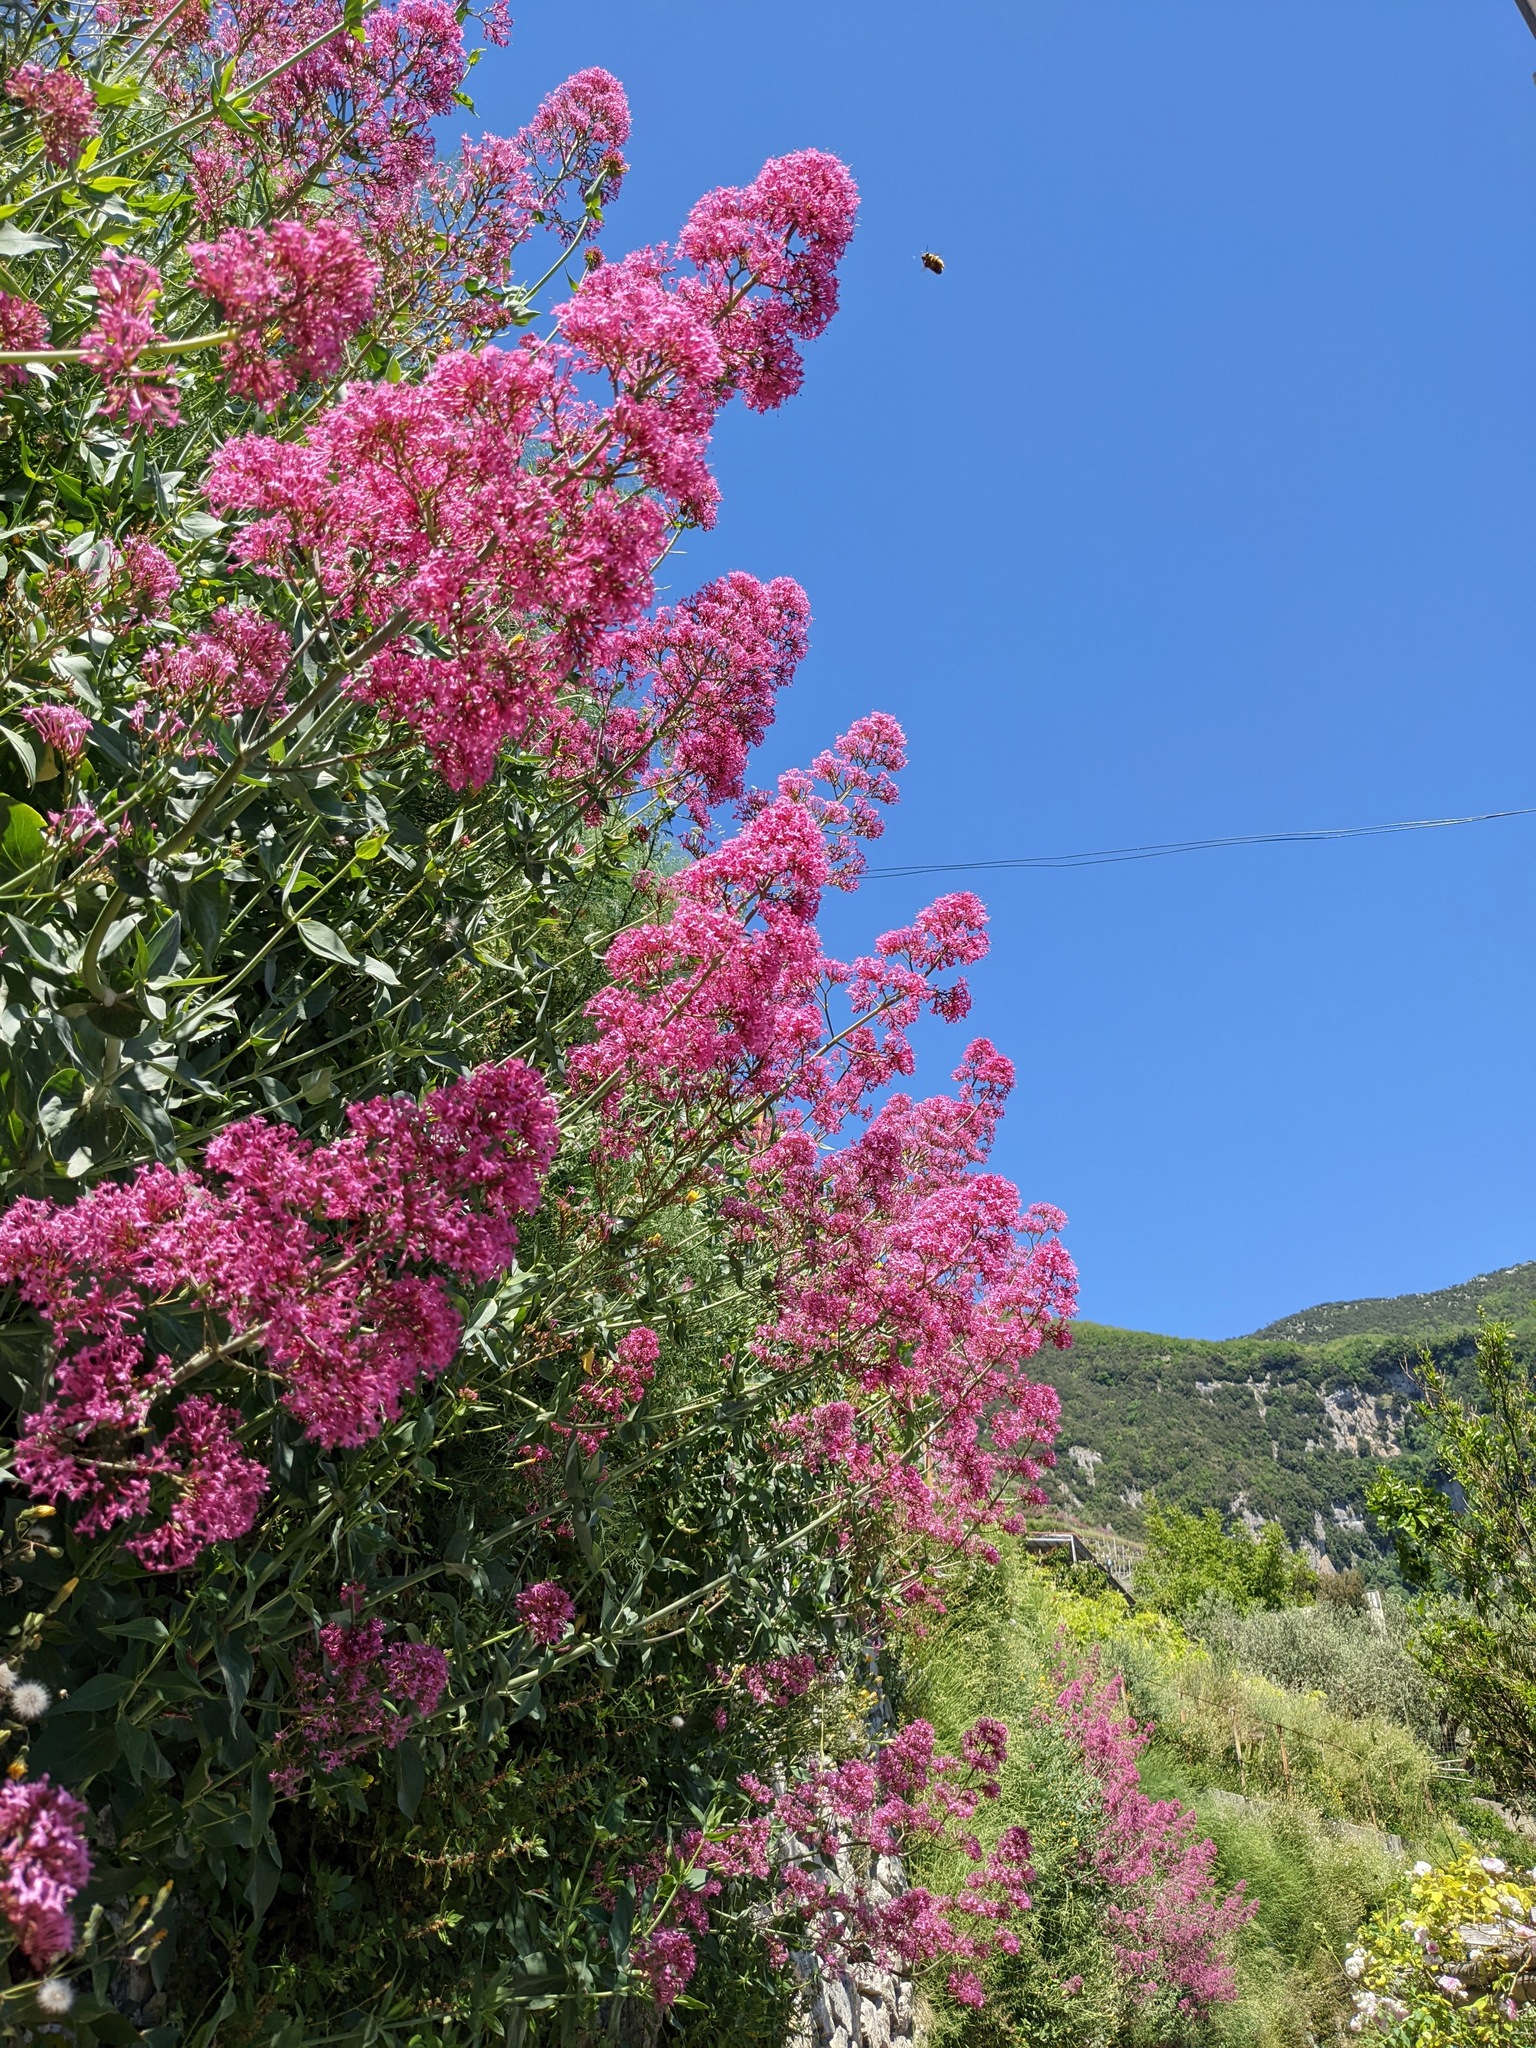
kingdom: Plantae
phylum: Tracheophyta
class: Magnoliopsida
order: Dipsacales
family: Caprifoliaceae
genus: Centranthus
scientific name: Centranthus ruber
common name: Red valerian
